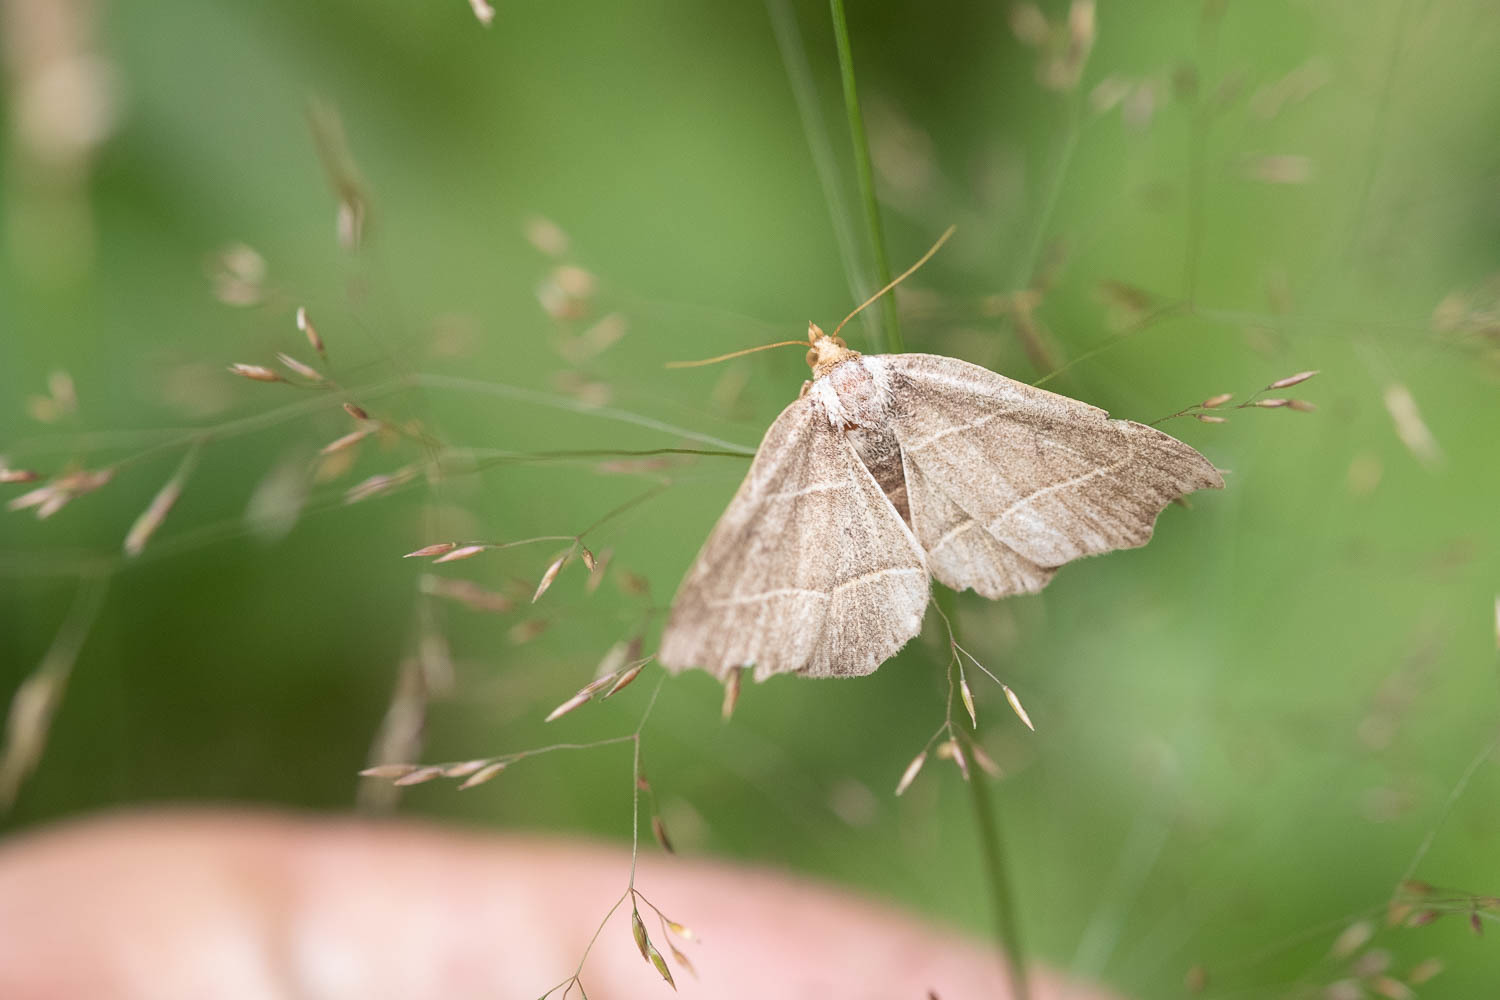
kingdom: Animalia
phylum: Arthropoda
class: Insecta
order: Lepidoptera
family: Erebidae
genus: Laspeyria
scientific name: Laspeyria flexula
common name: Beautiful hook-tip
